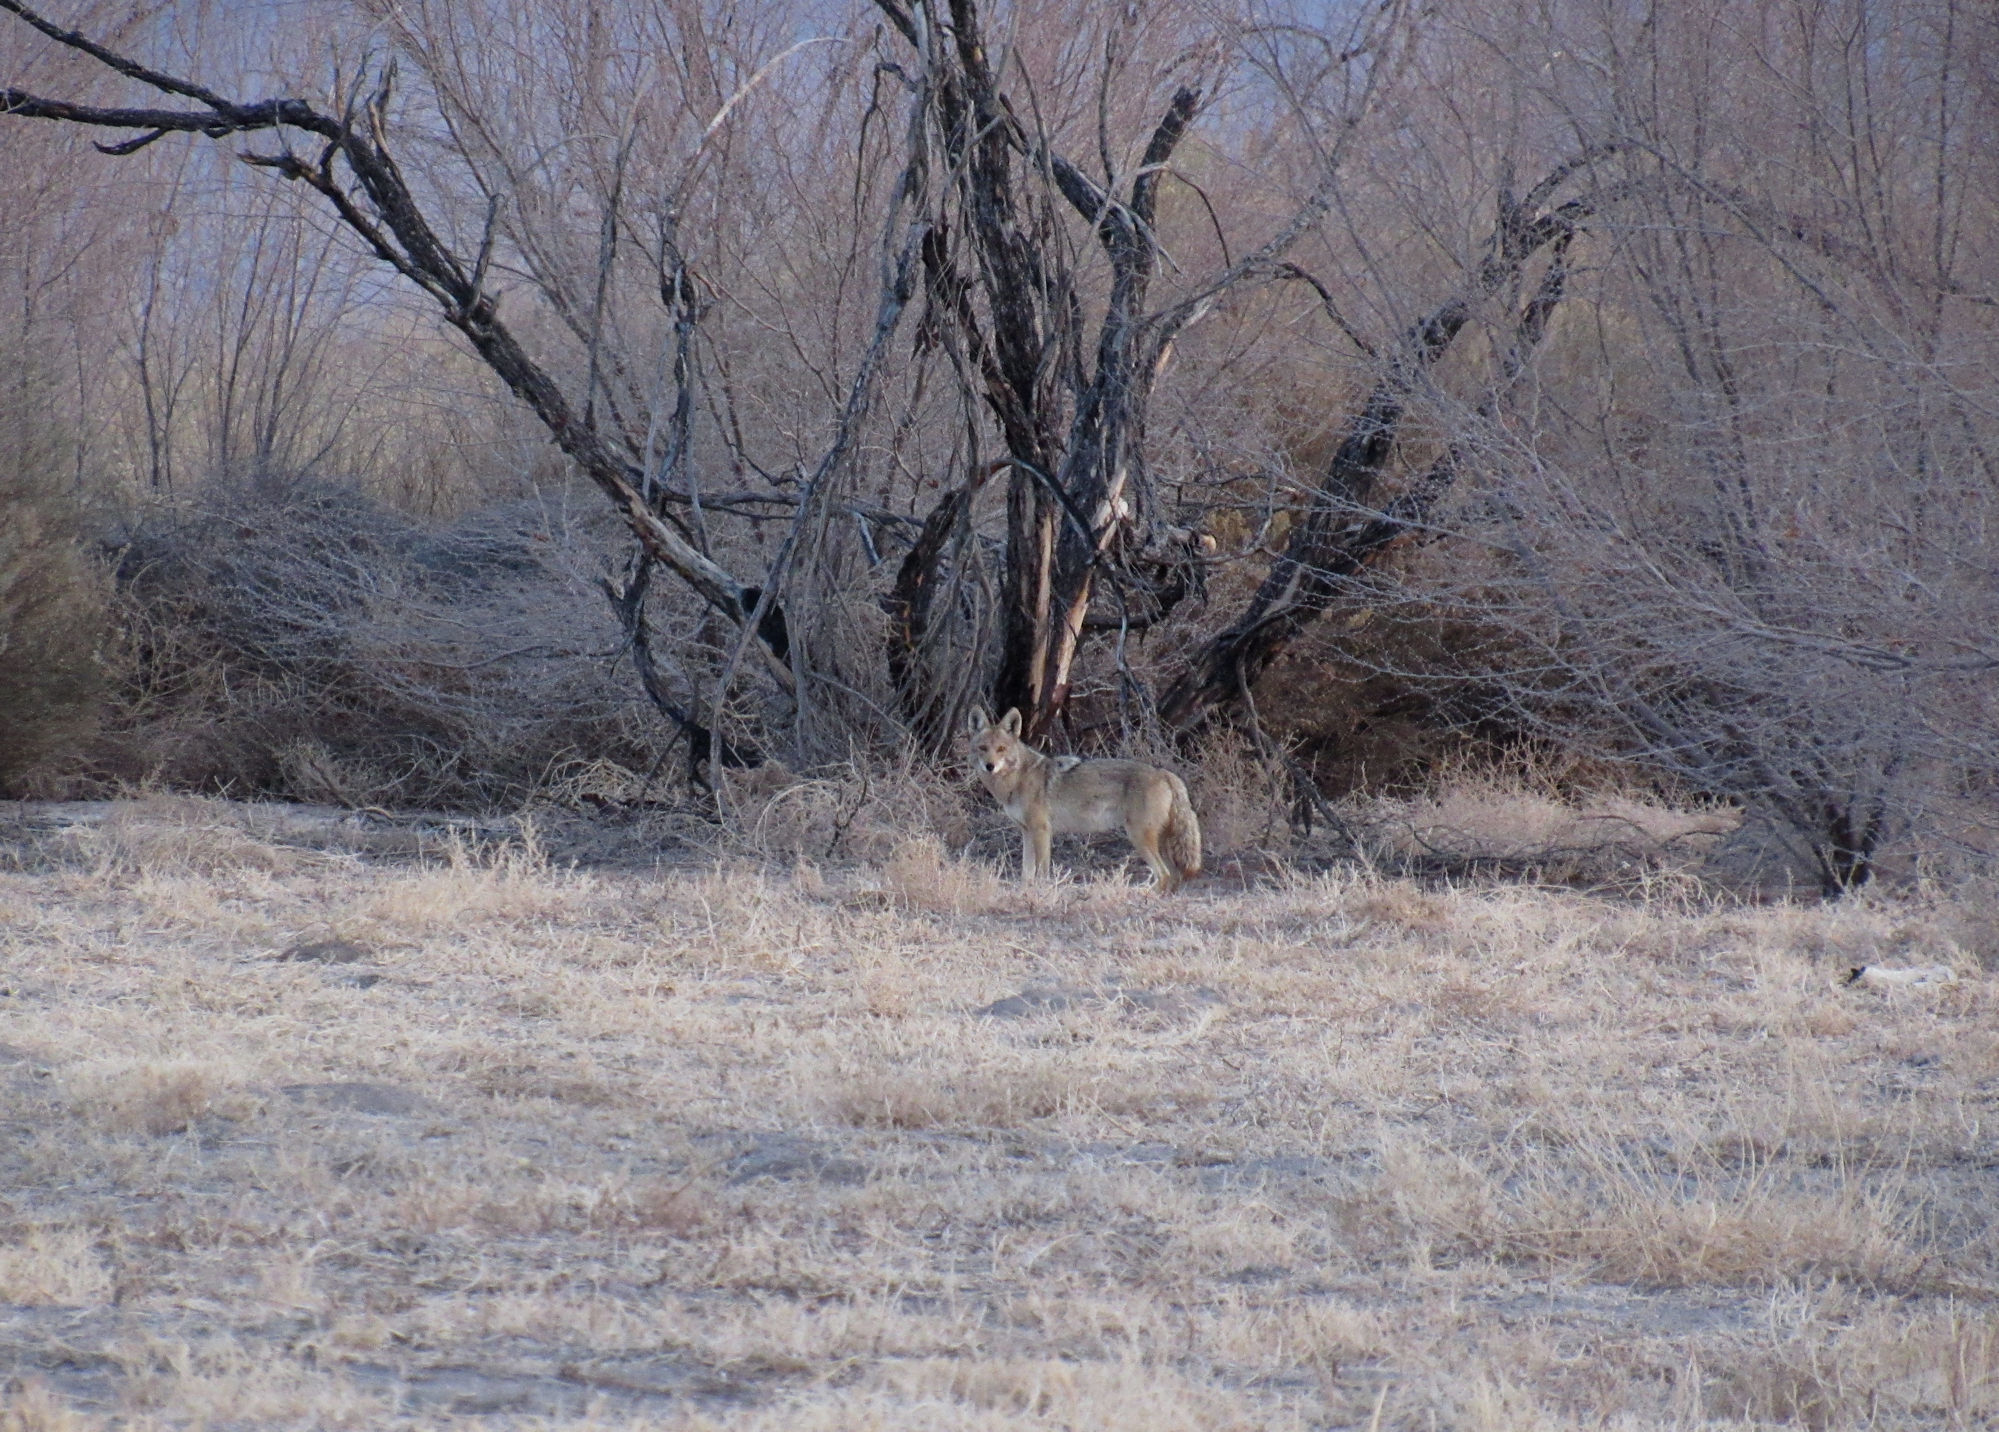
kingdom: Animalia
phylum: Chordata
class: Mammalia
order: Carnivora
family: Canidae
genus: Canis
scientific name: Canis latrans
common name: Coyote
